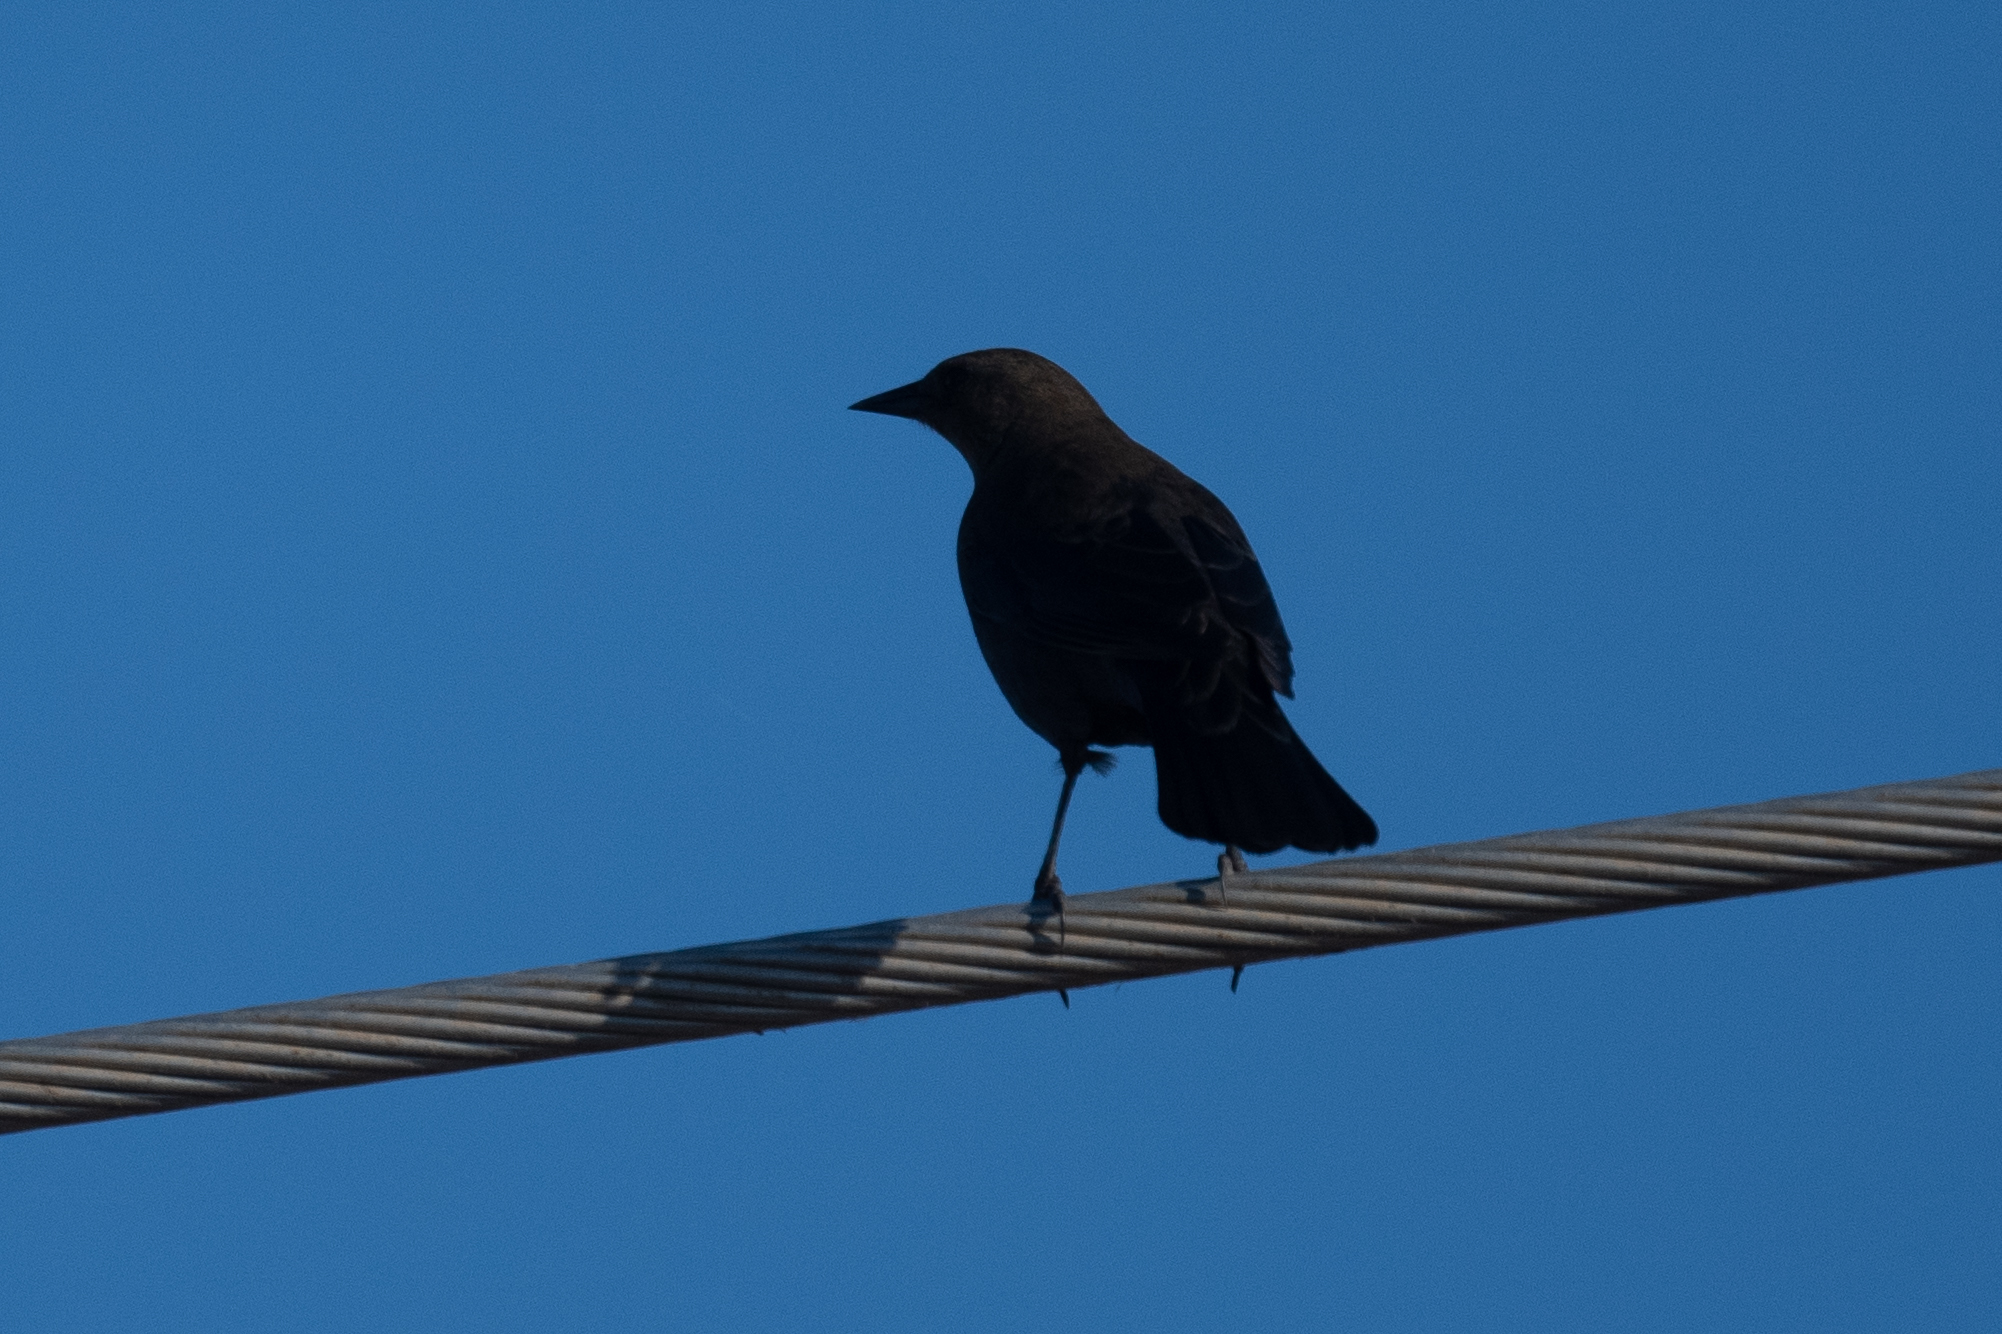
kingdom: Animalia
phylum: Chordata
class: Aves
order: Passeriformes
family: Icteridae
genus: Euphagus
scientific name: Euphagus cyanocephalus
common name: Brewer's blackbird
